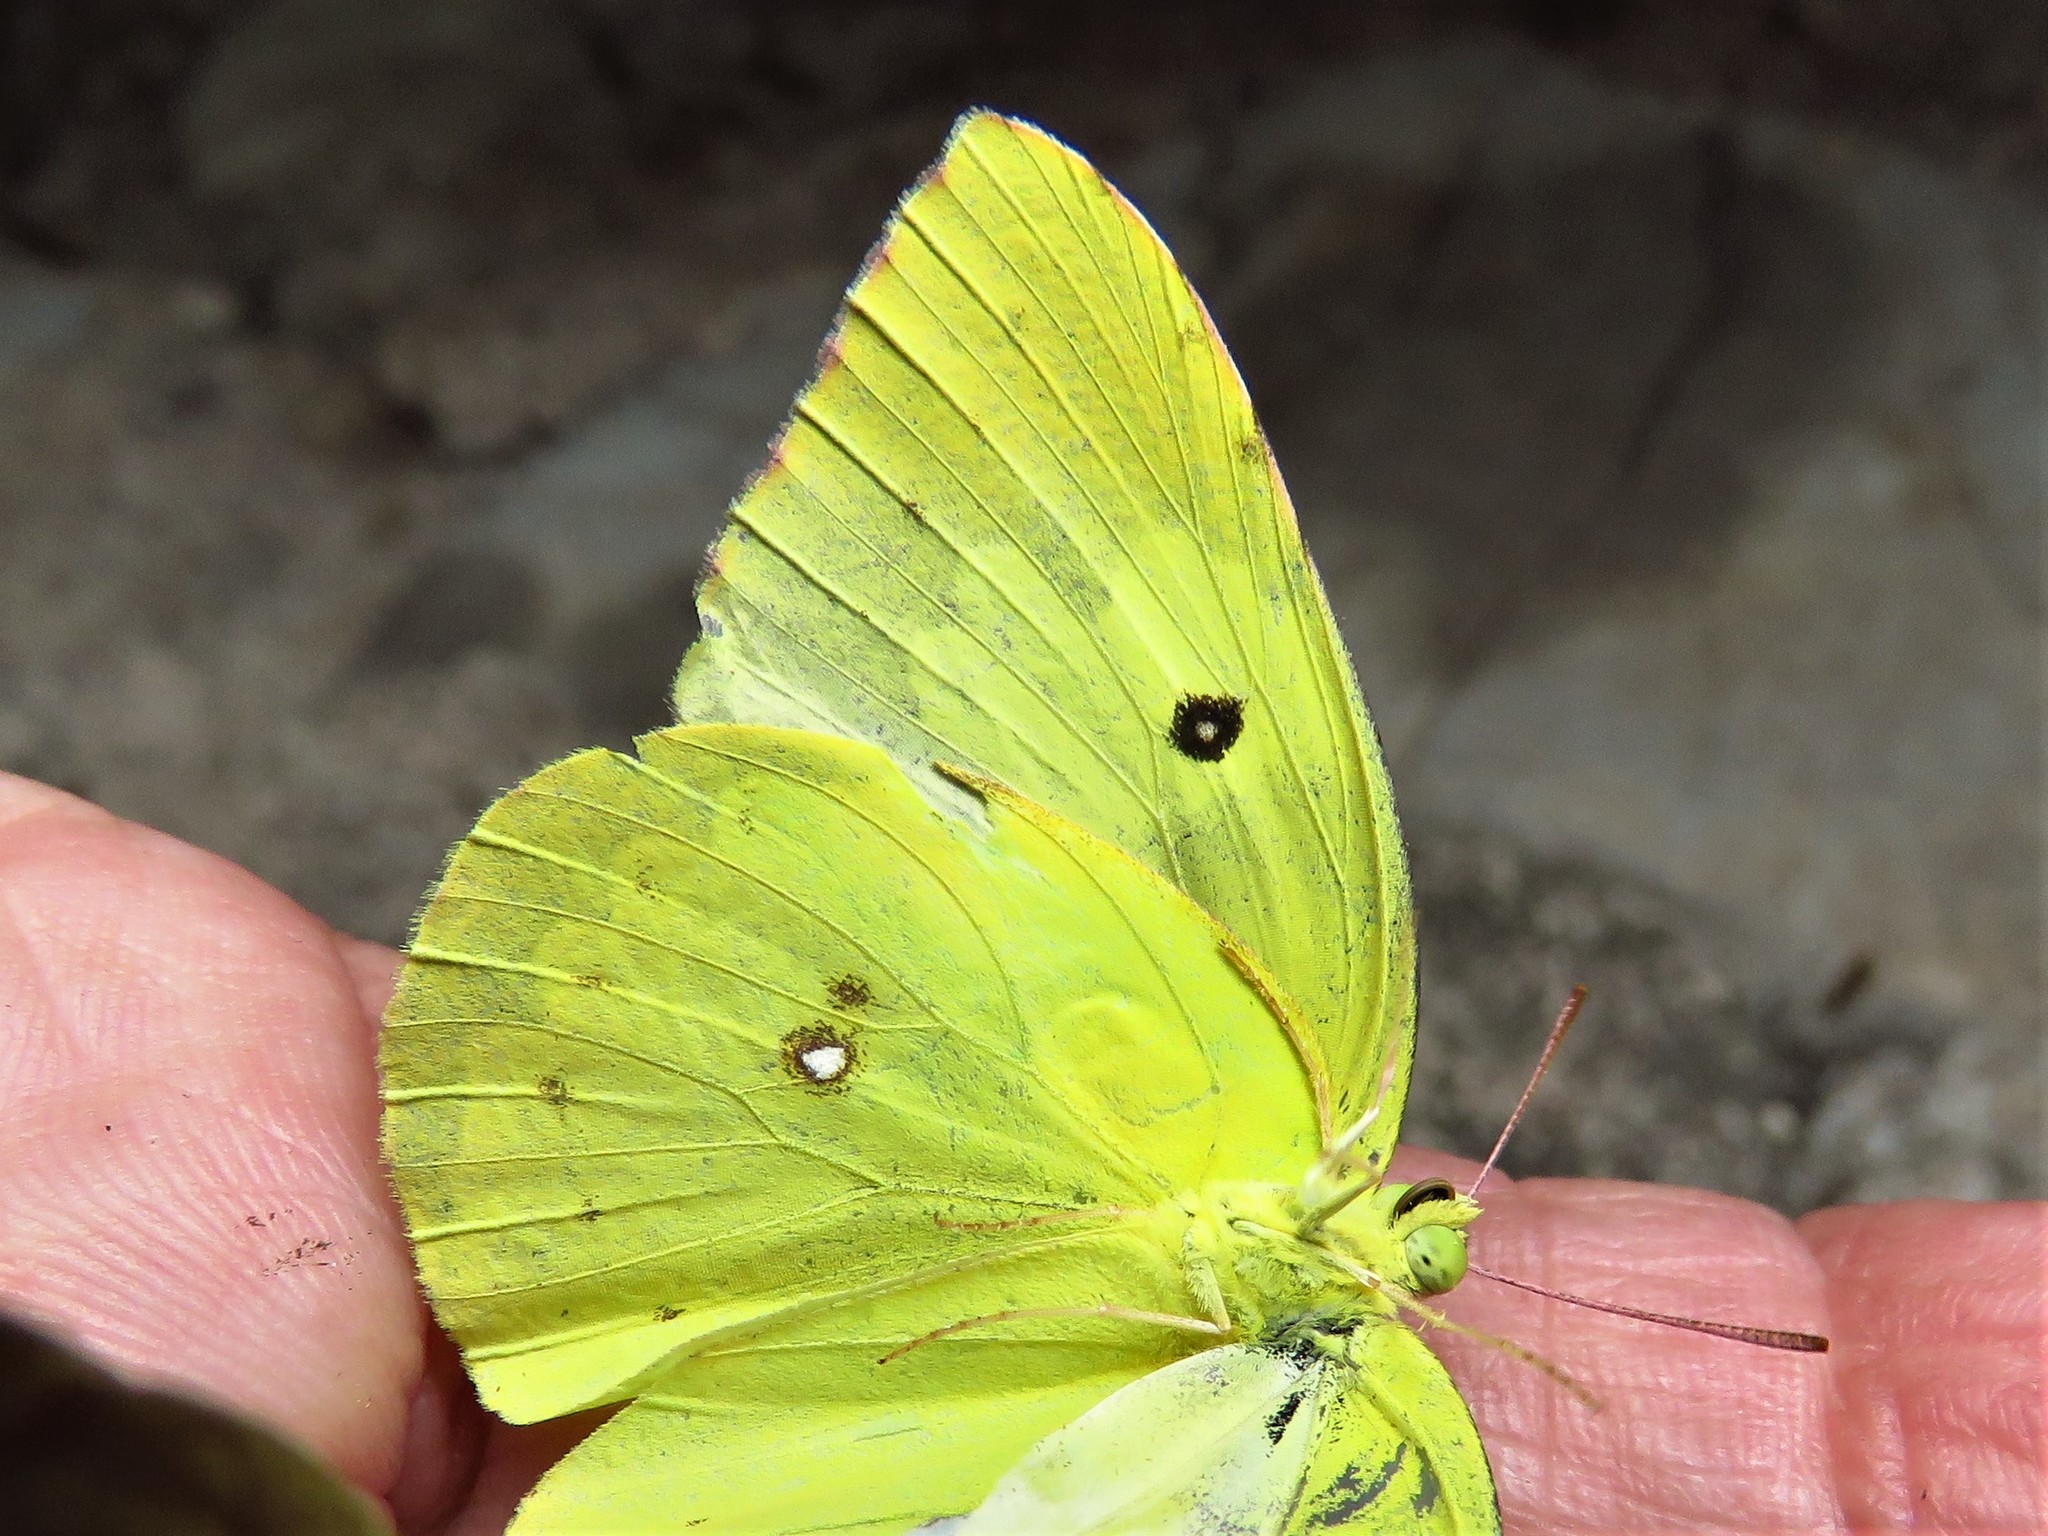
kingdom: Animalia
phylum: Arthropoda
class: Insecta
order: Lepidoptera
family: Pieridae
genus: Zerene
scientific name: Zerene cesonia
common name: Southern dogface
